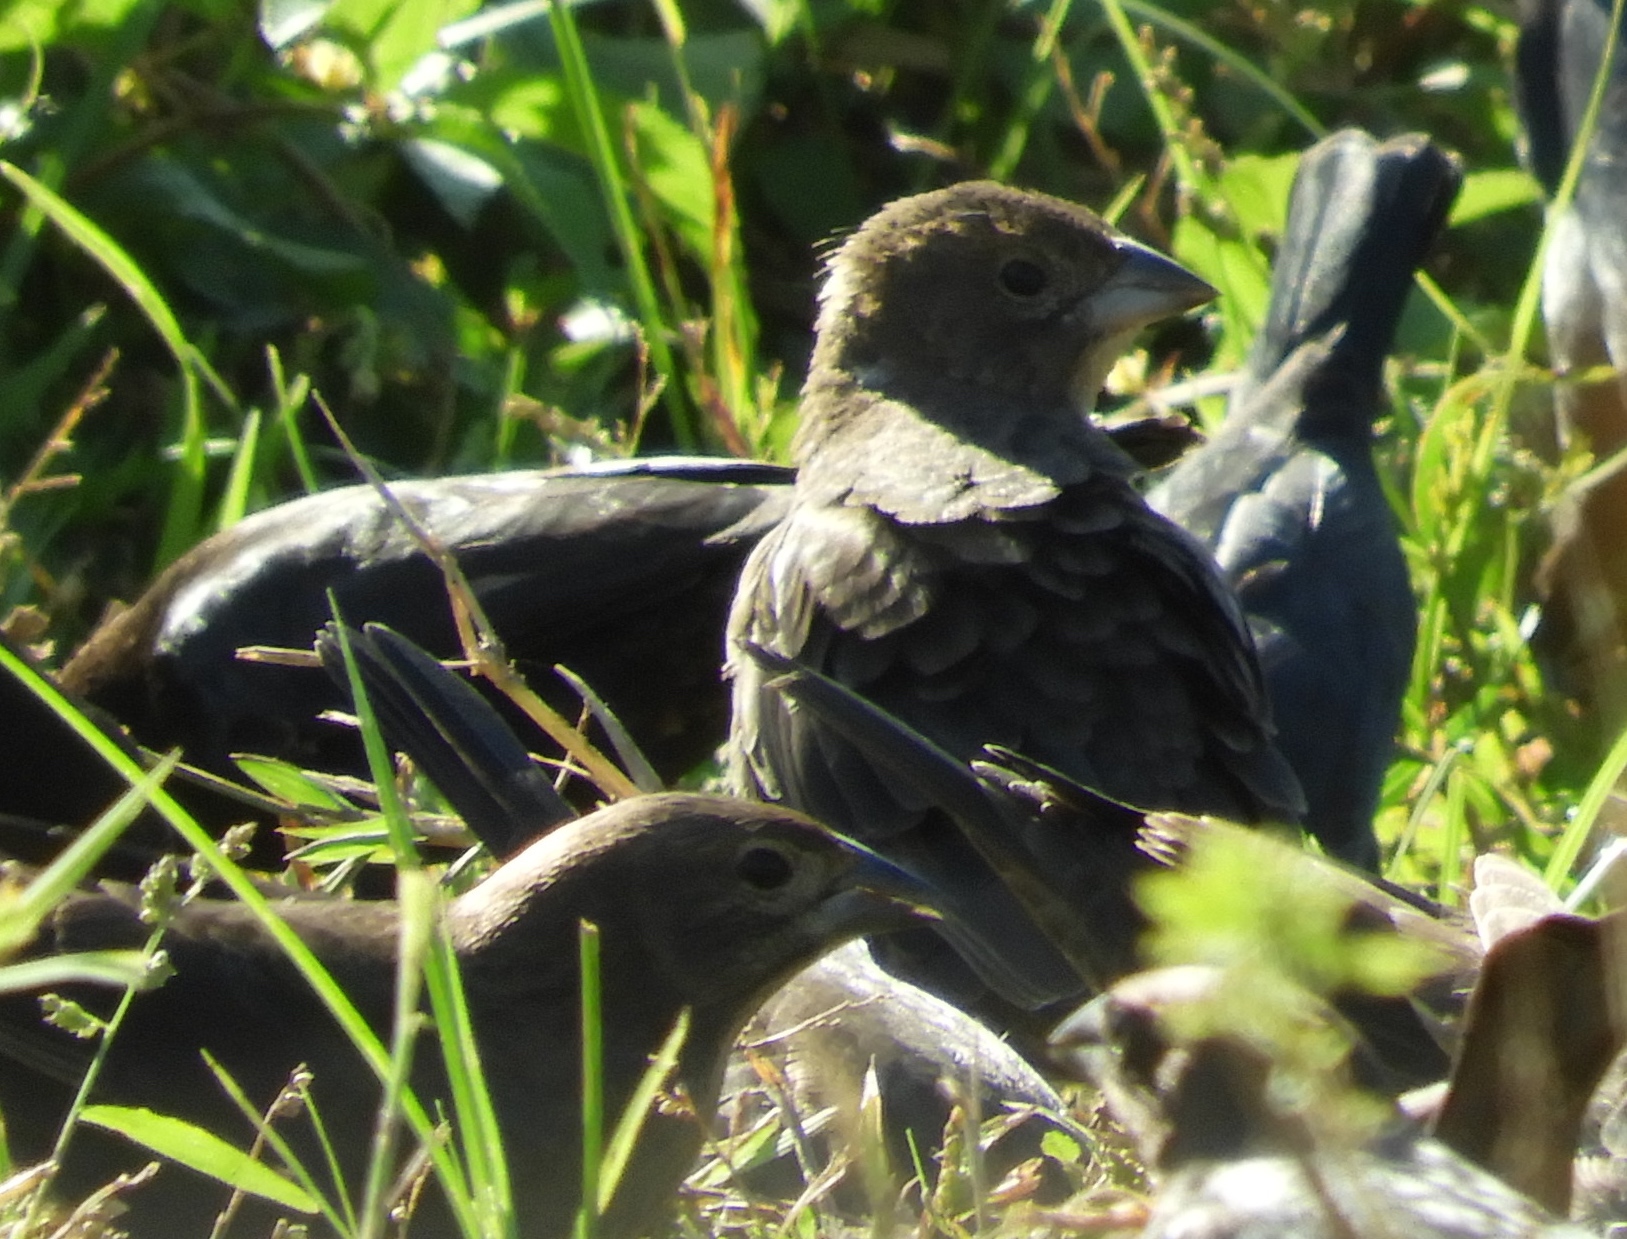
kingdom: Animalia
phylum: Chordata
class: Aves
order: Passeriformes
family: Icteridae
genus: Molothrus
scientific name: Molothrus ater
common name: Brown-headed cowbird
